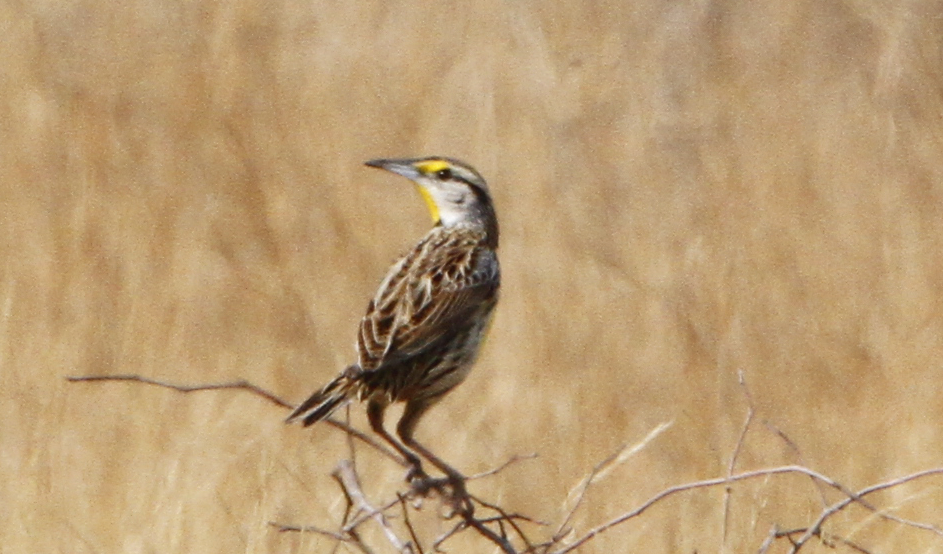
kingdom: Animalia
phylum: Chordata
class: Aves
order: Passeriformes
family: Icteridae
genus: Sturnella
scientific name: Sturnella magna
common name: Eastern meadowlark
